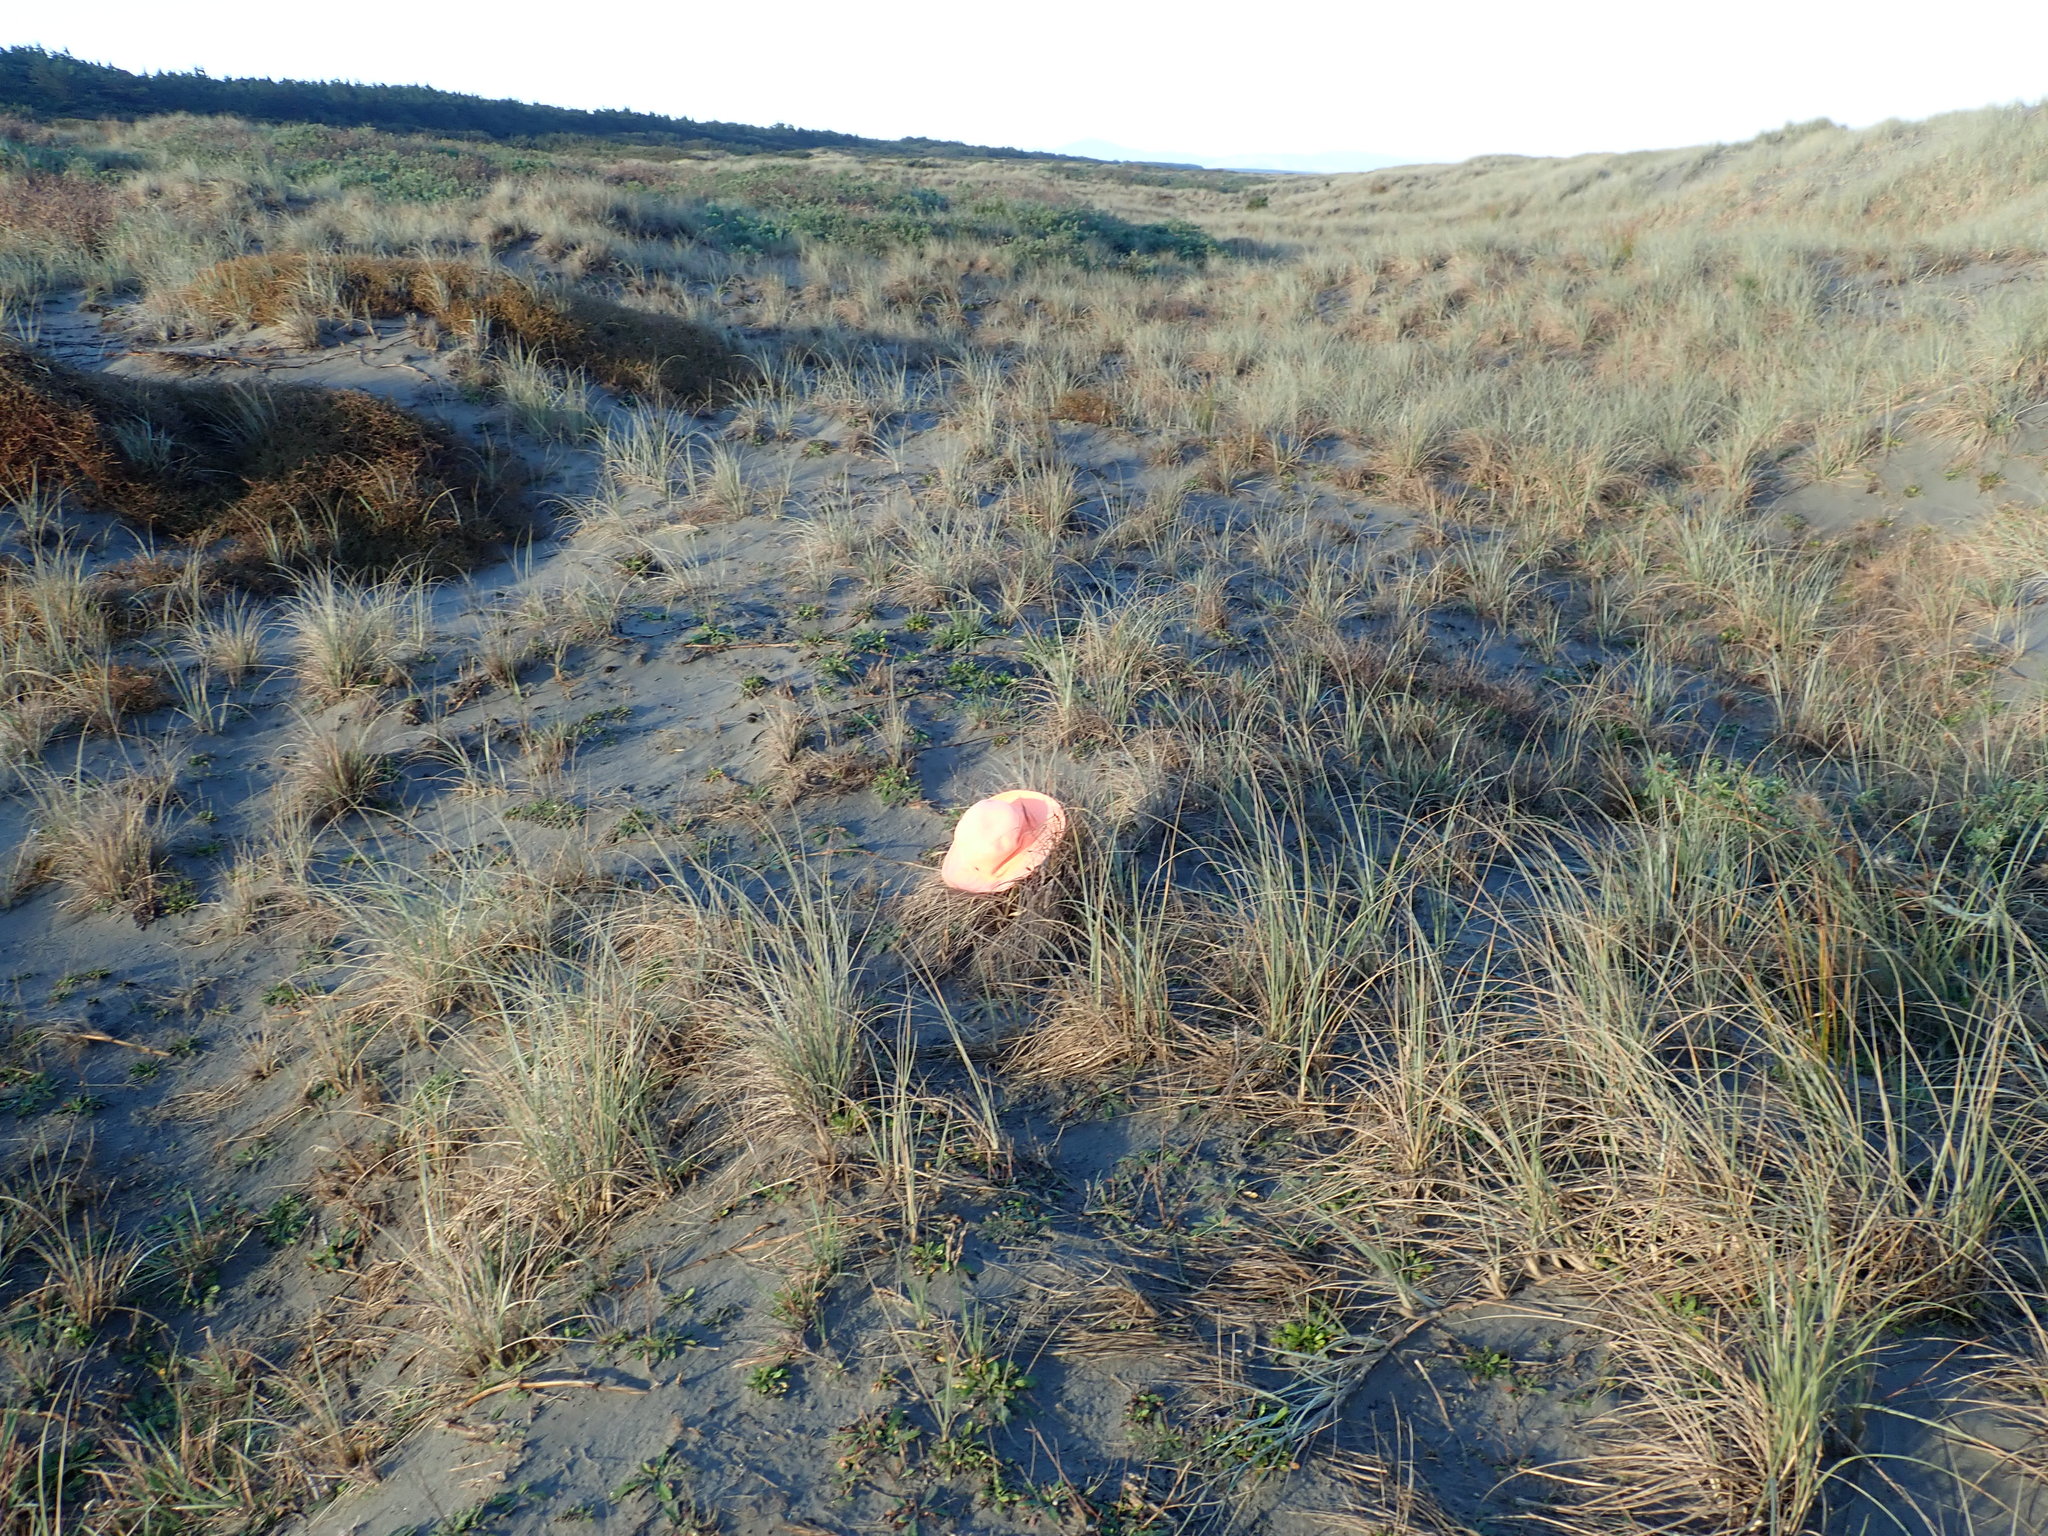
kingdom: Animalia
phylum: Arthropoda
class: Malacostraca
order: Isopoda
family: Porcellionidae
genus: Porcellio
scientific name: Porcellio scaber
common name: Common rough woodlouse
